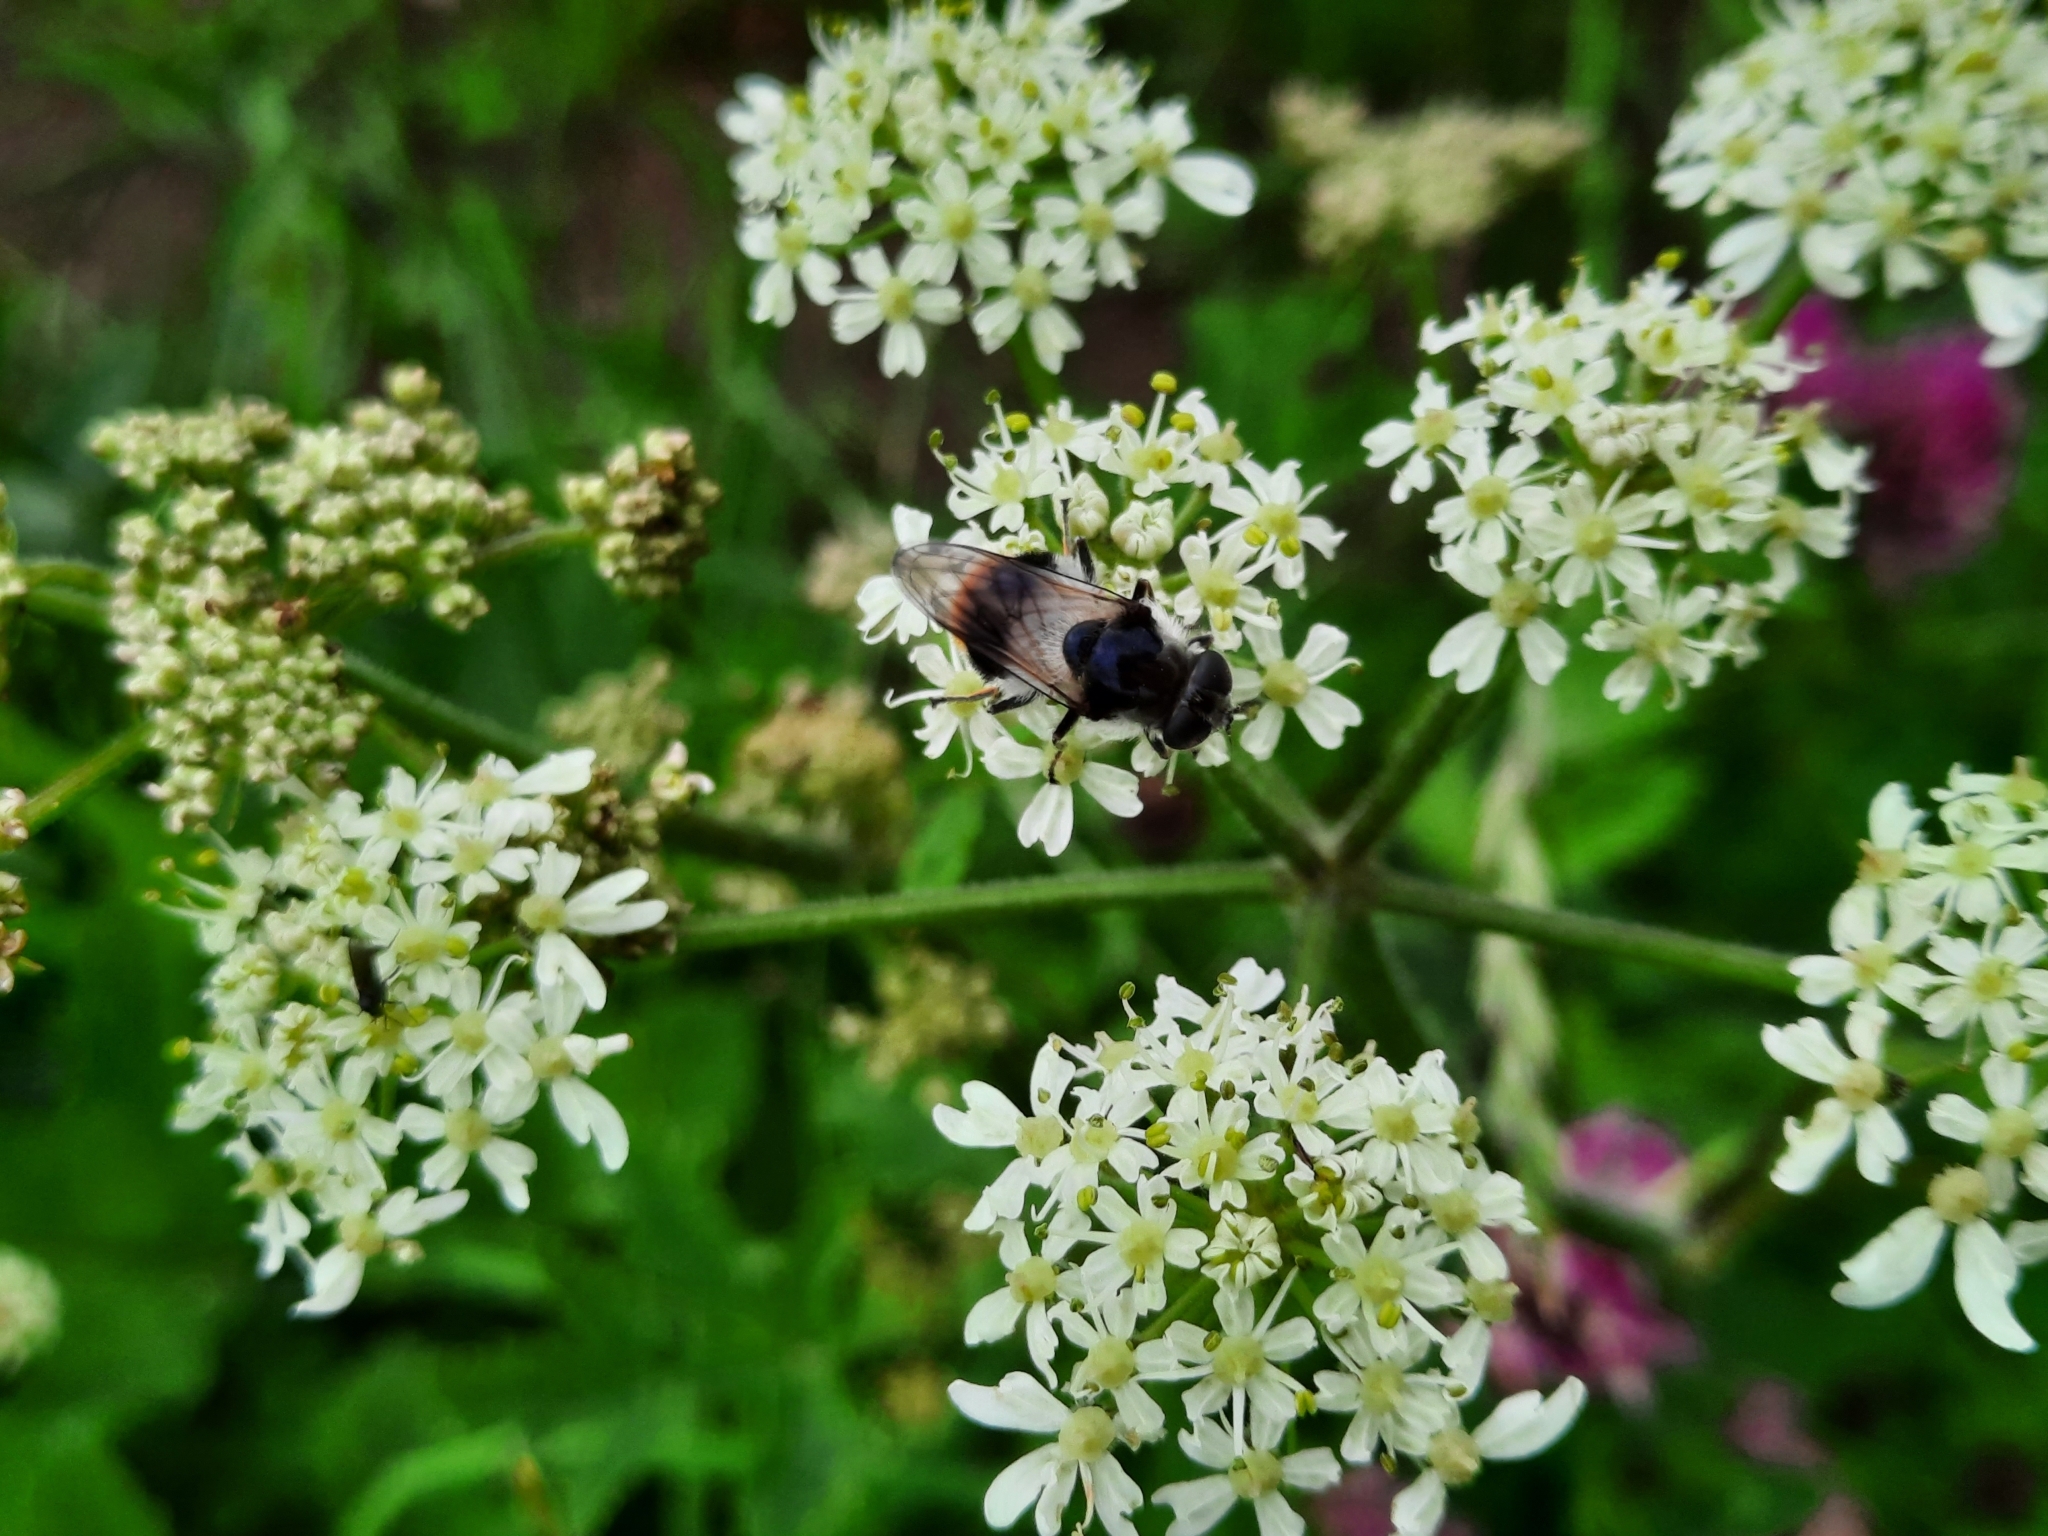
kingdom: Animalia
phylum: Arthropoda
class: Insecta
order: Diptera
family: Syrphidae
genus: Cheilosia
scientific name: Cheilosia illustrata
